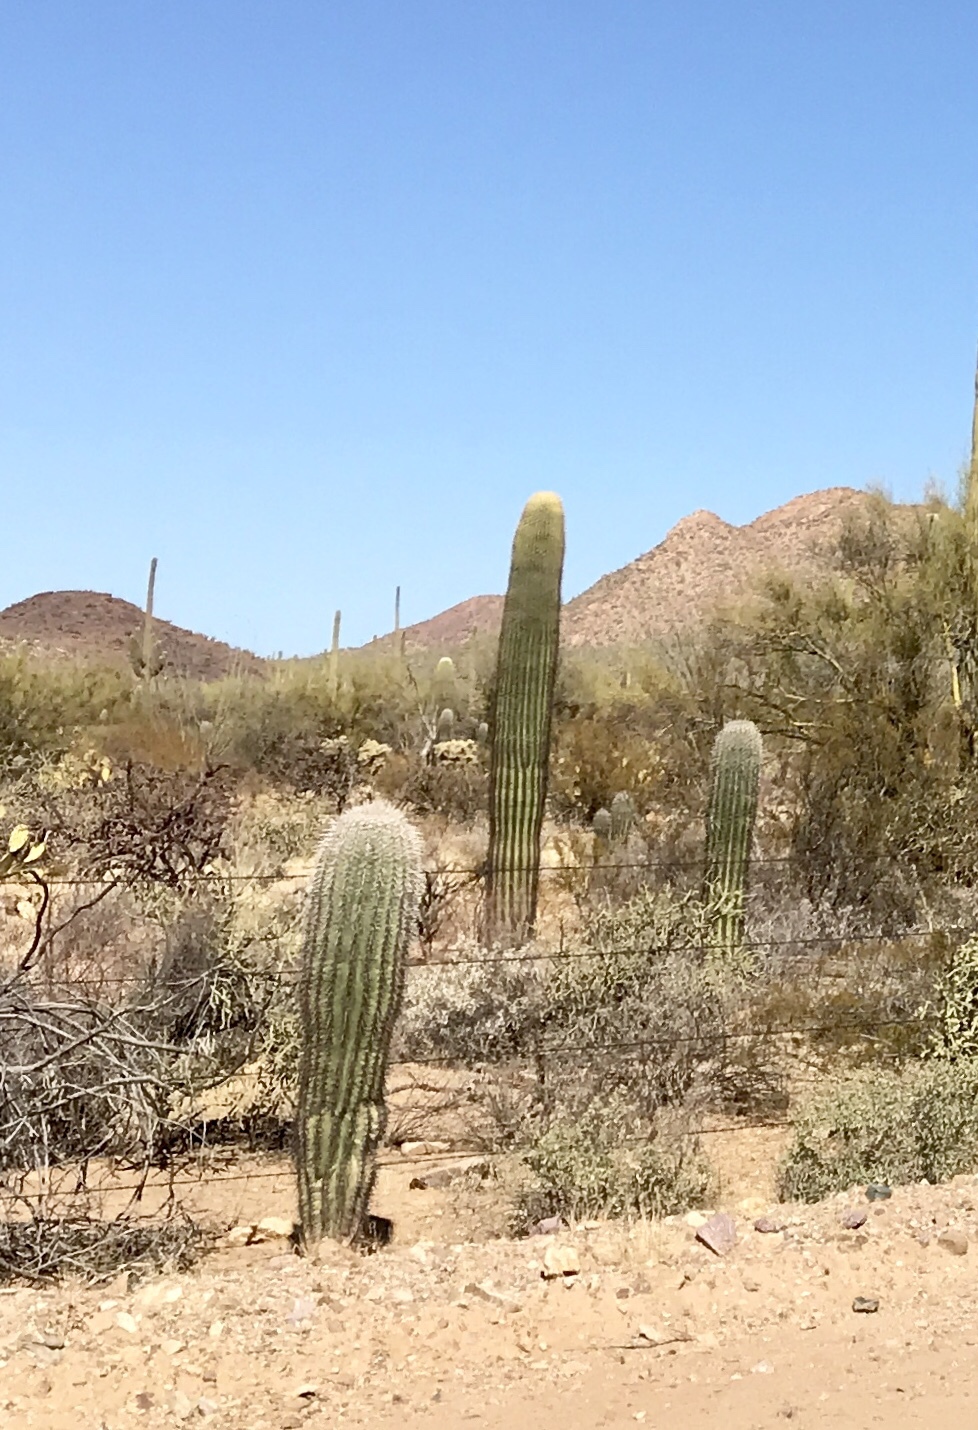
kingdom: Plantae
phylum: Tracheophyta
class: Magnoliopsida
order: Caryophyllales
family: Cactaceae
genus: Carnegiea
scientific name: Carnegiea gigantea
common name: Saguaro
